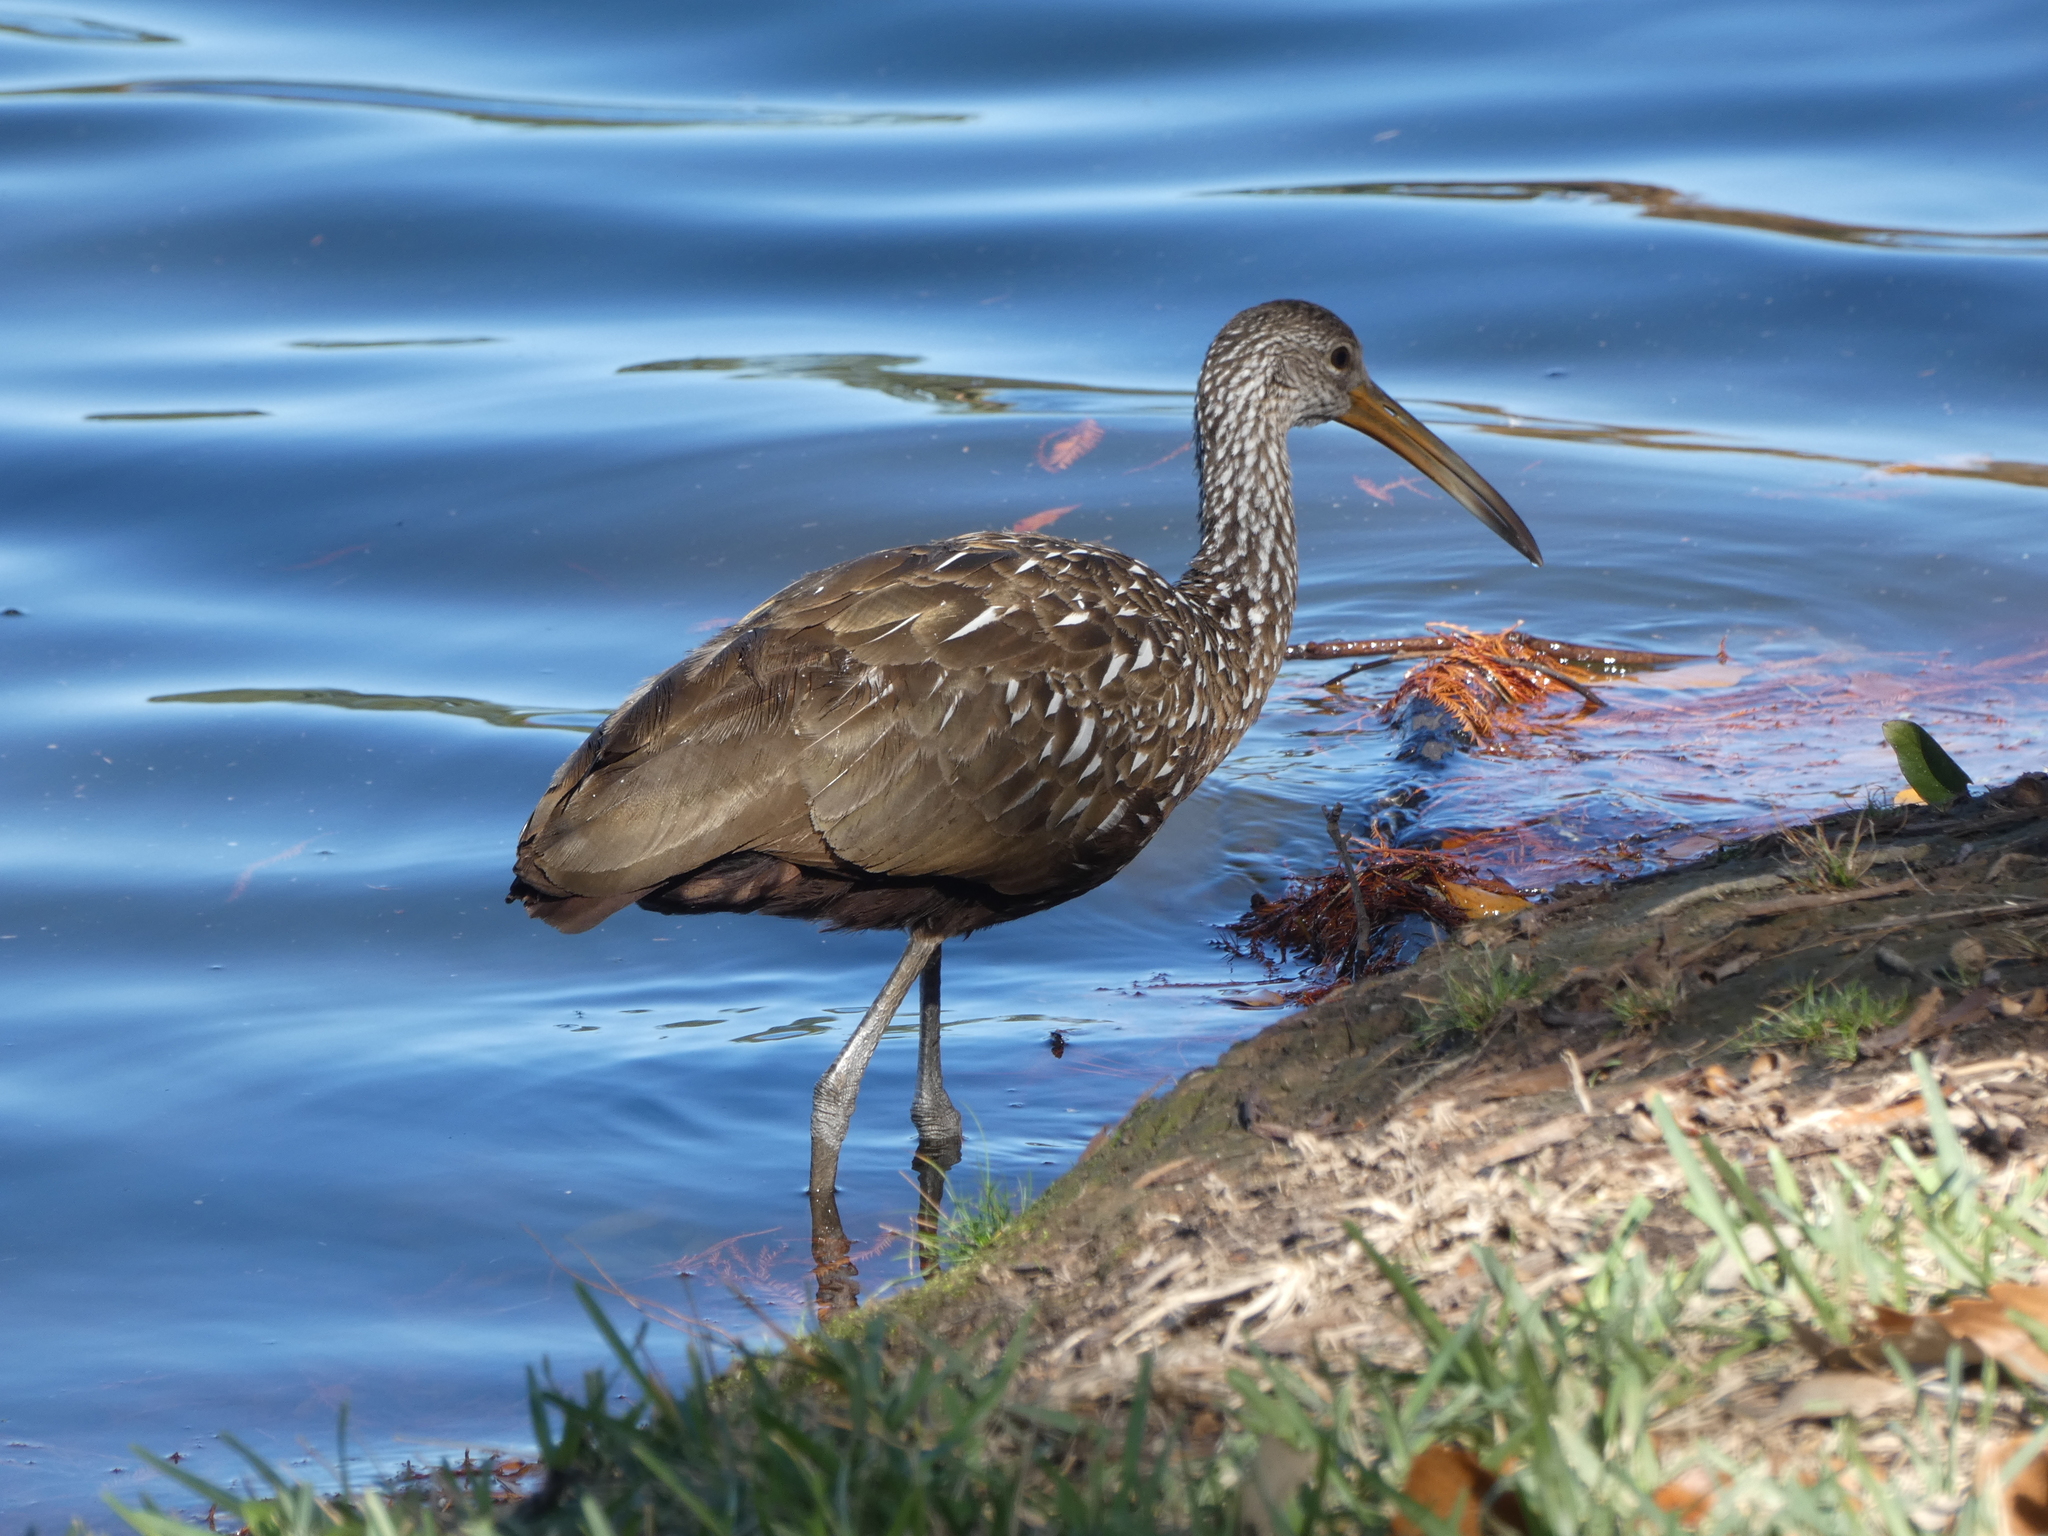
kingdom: Animalia
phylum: Chordata
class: Aves
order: Gruiformes
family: Aramidae
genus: Aramus
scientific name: Aramus guarauna
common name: Limpkin
